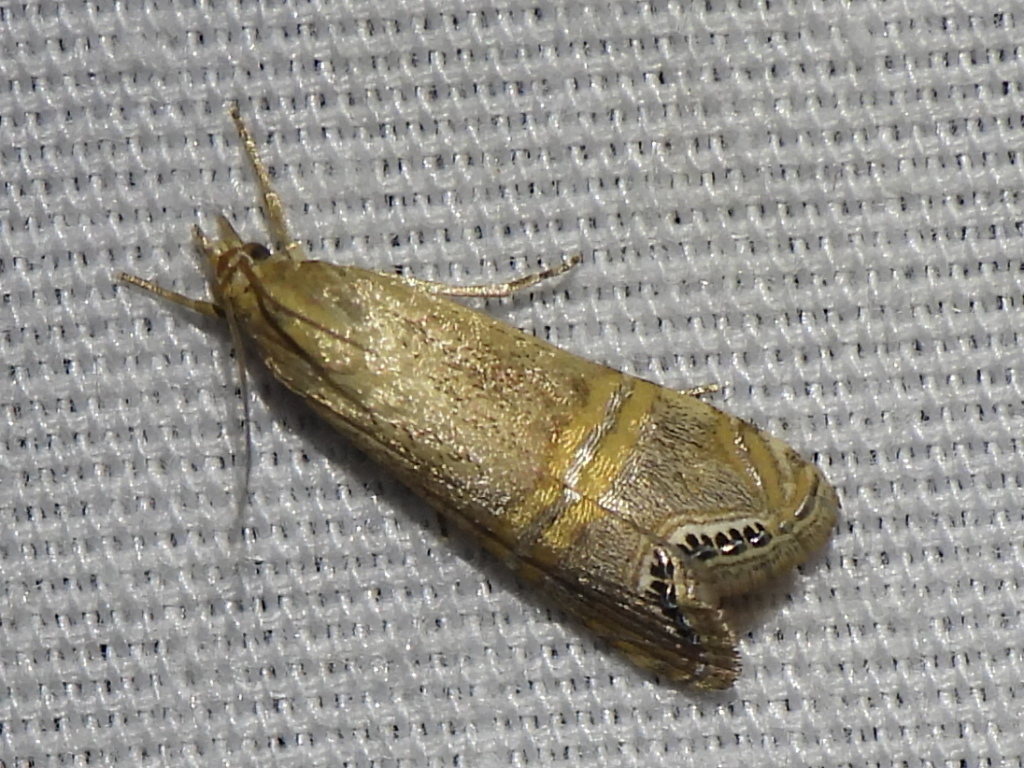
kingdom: Animalia
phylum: Arthropoda
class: Insecta
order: Lepidoptera
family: Crambidae
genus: Euchromius
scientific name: Euchromius ocellea
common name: Necklace veneer moth
